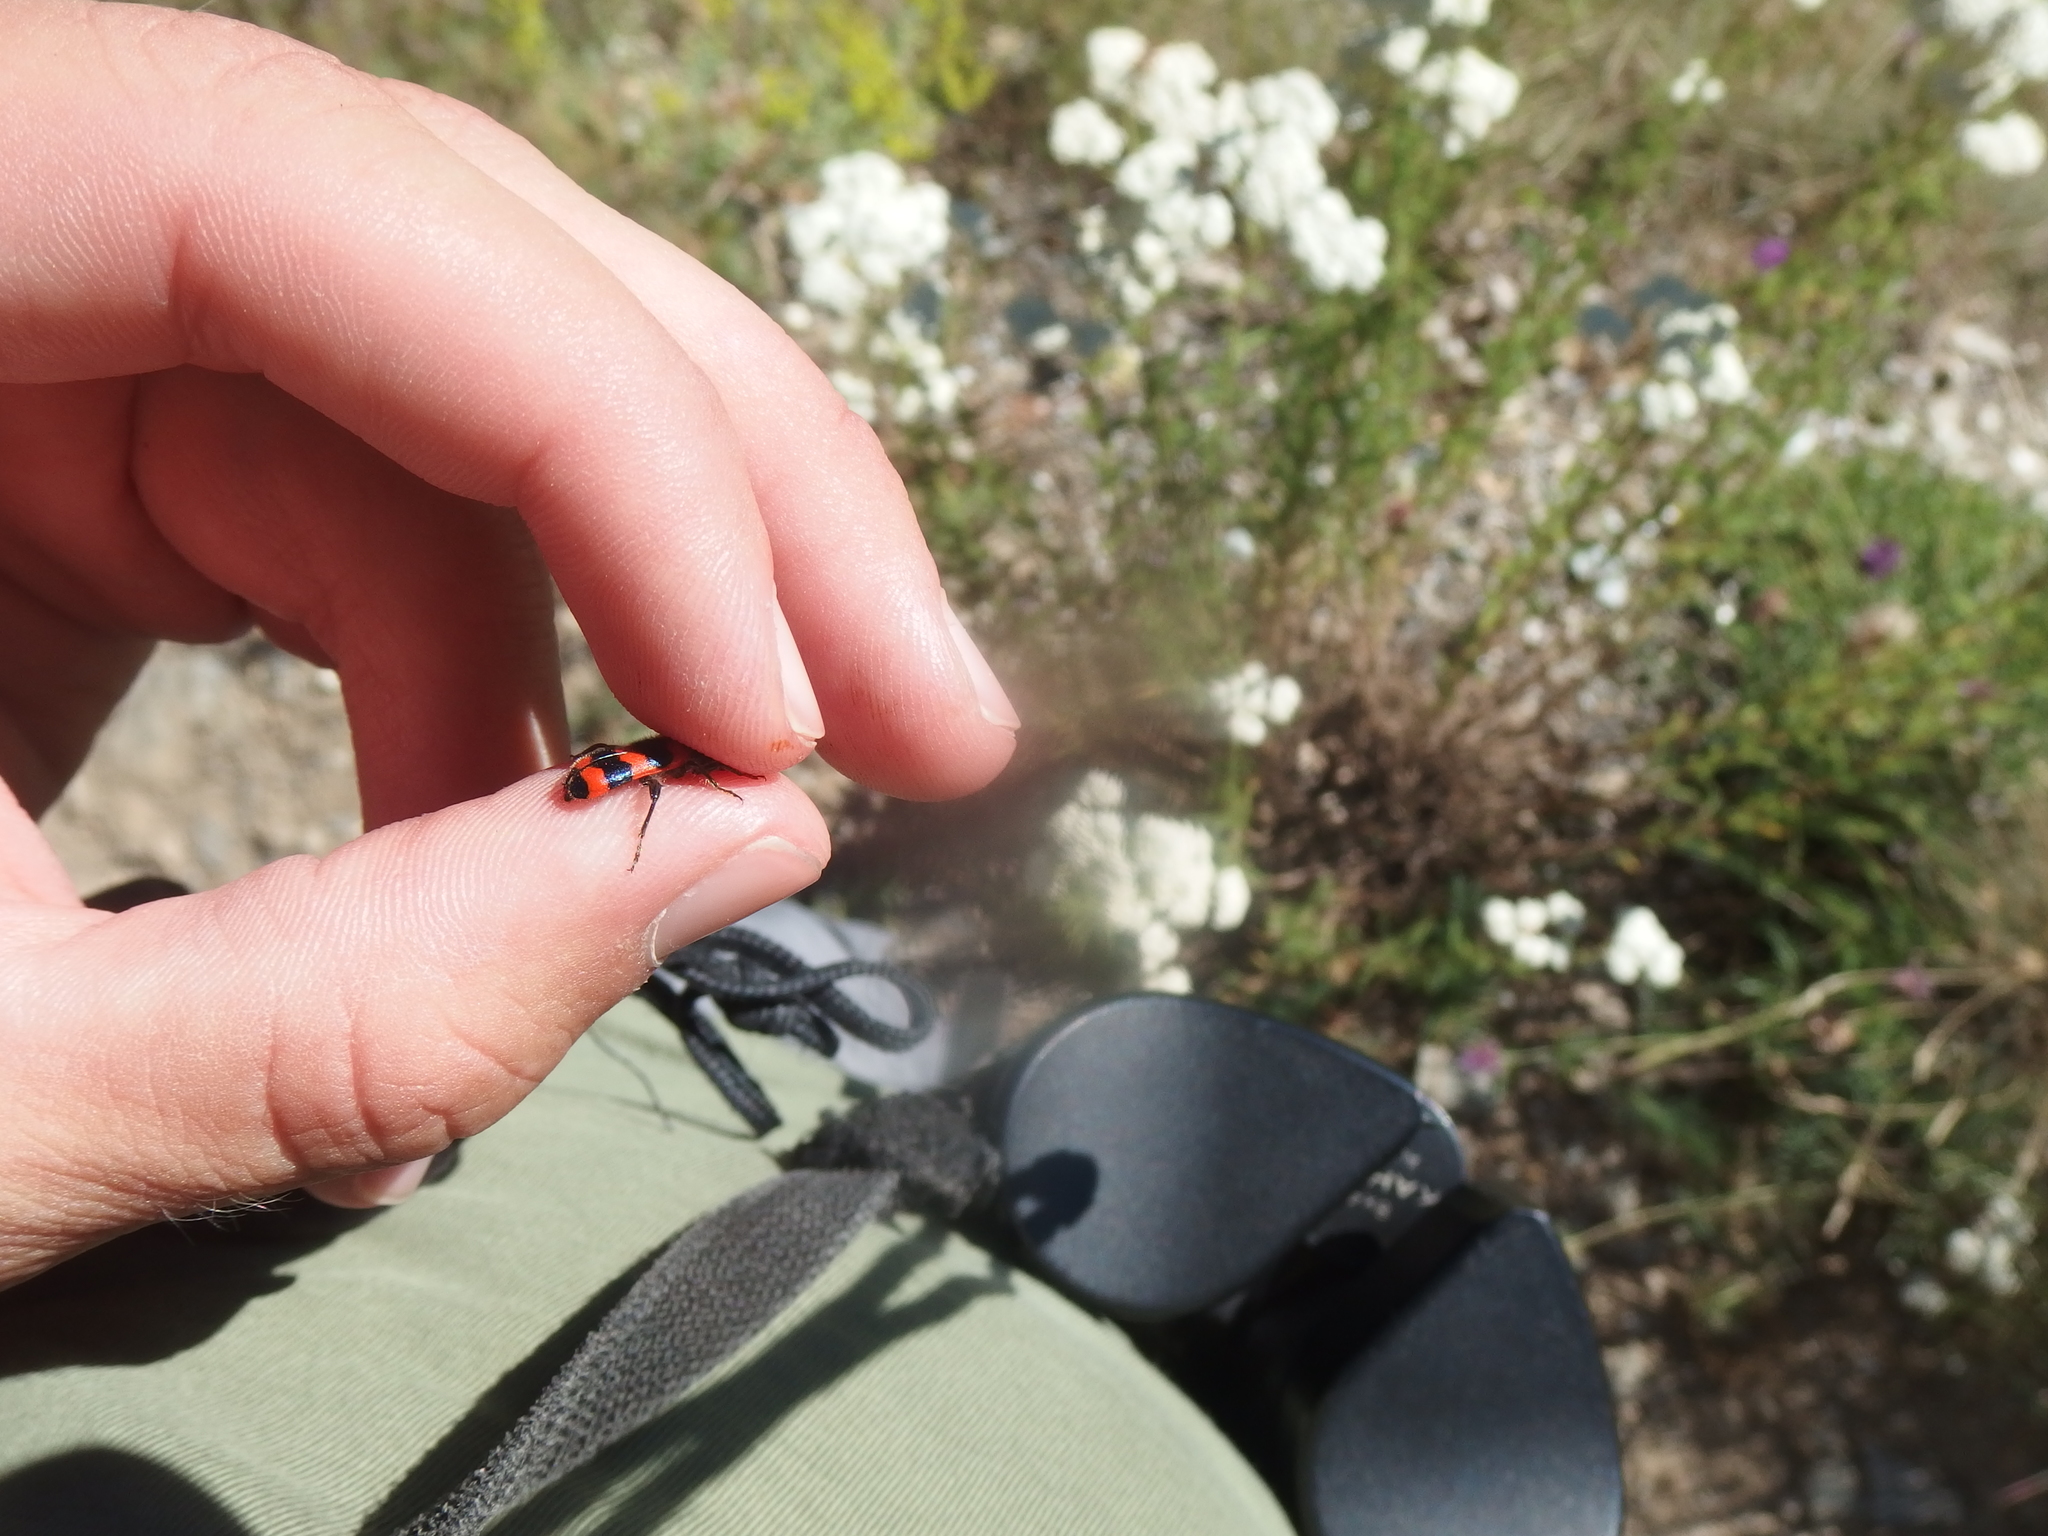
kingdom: Animalia
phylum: Arthropoda
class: Insecta
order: Coleoptera
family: Cleridae
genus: Trichodes
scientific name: Trichodes apiarius
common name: Bee-eating beetle
